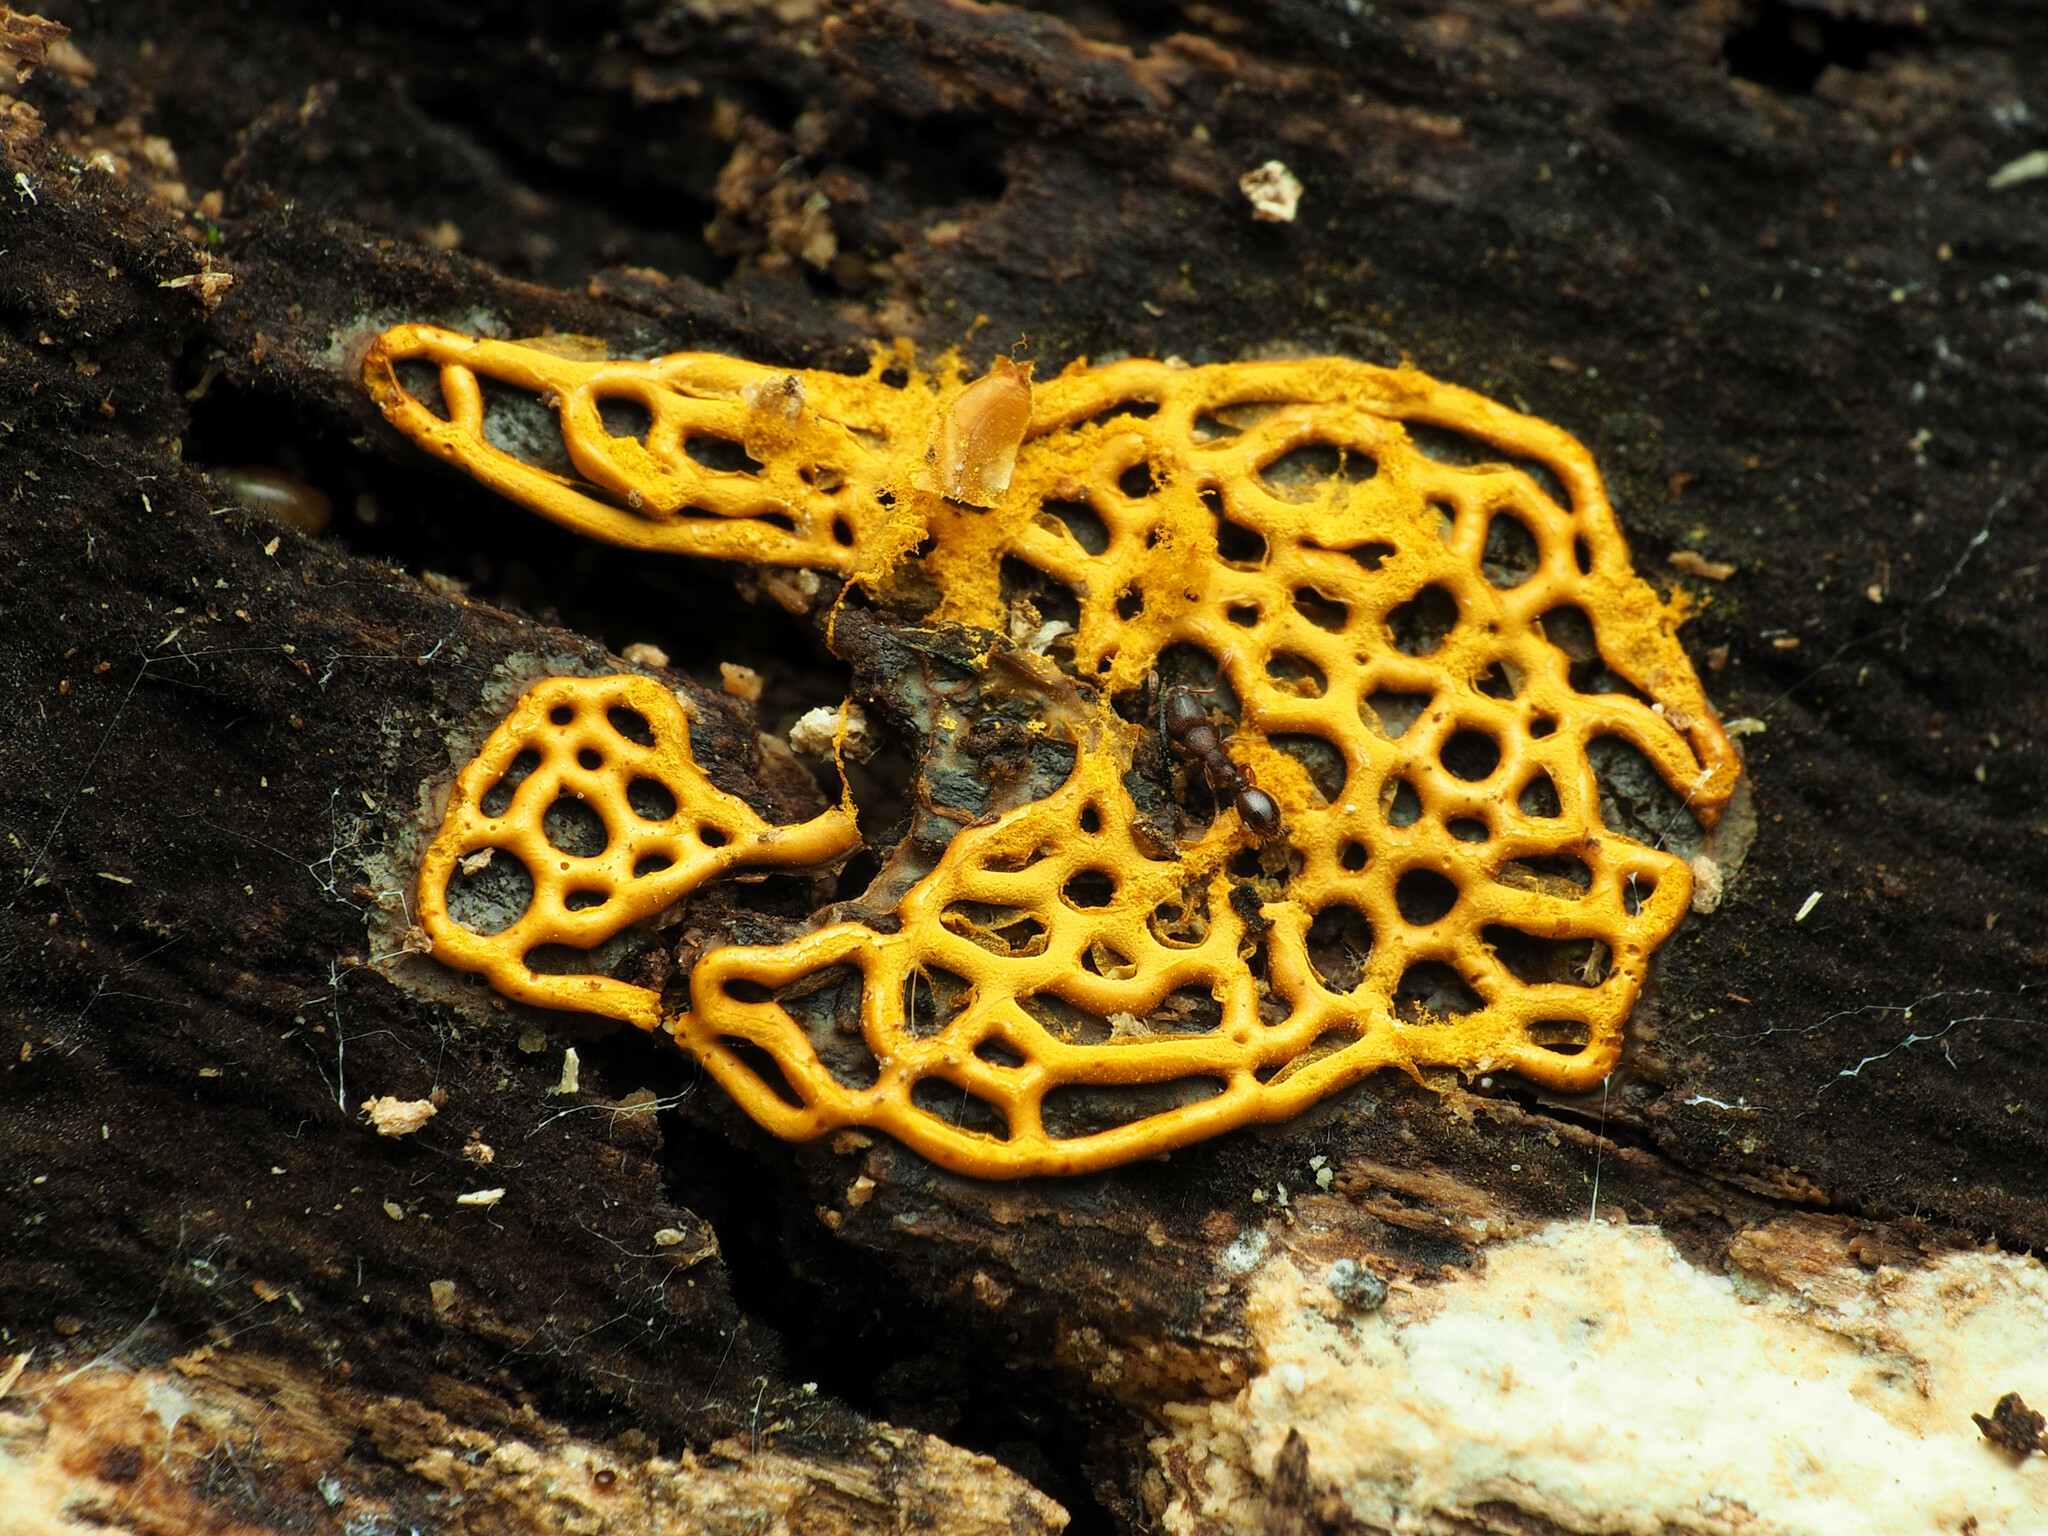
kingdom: Protozoa
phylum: Mycetozoa
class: Myxomycetes
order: Trichiales
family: Arcyriaceae
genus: Hemitrichia
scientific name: Hemitrichia serpula
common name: Pretzel slime mold
